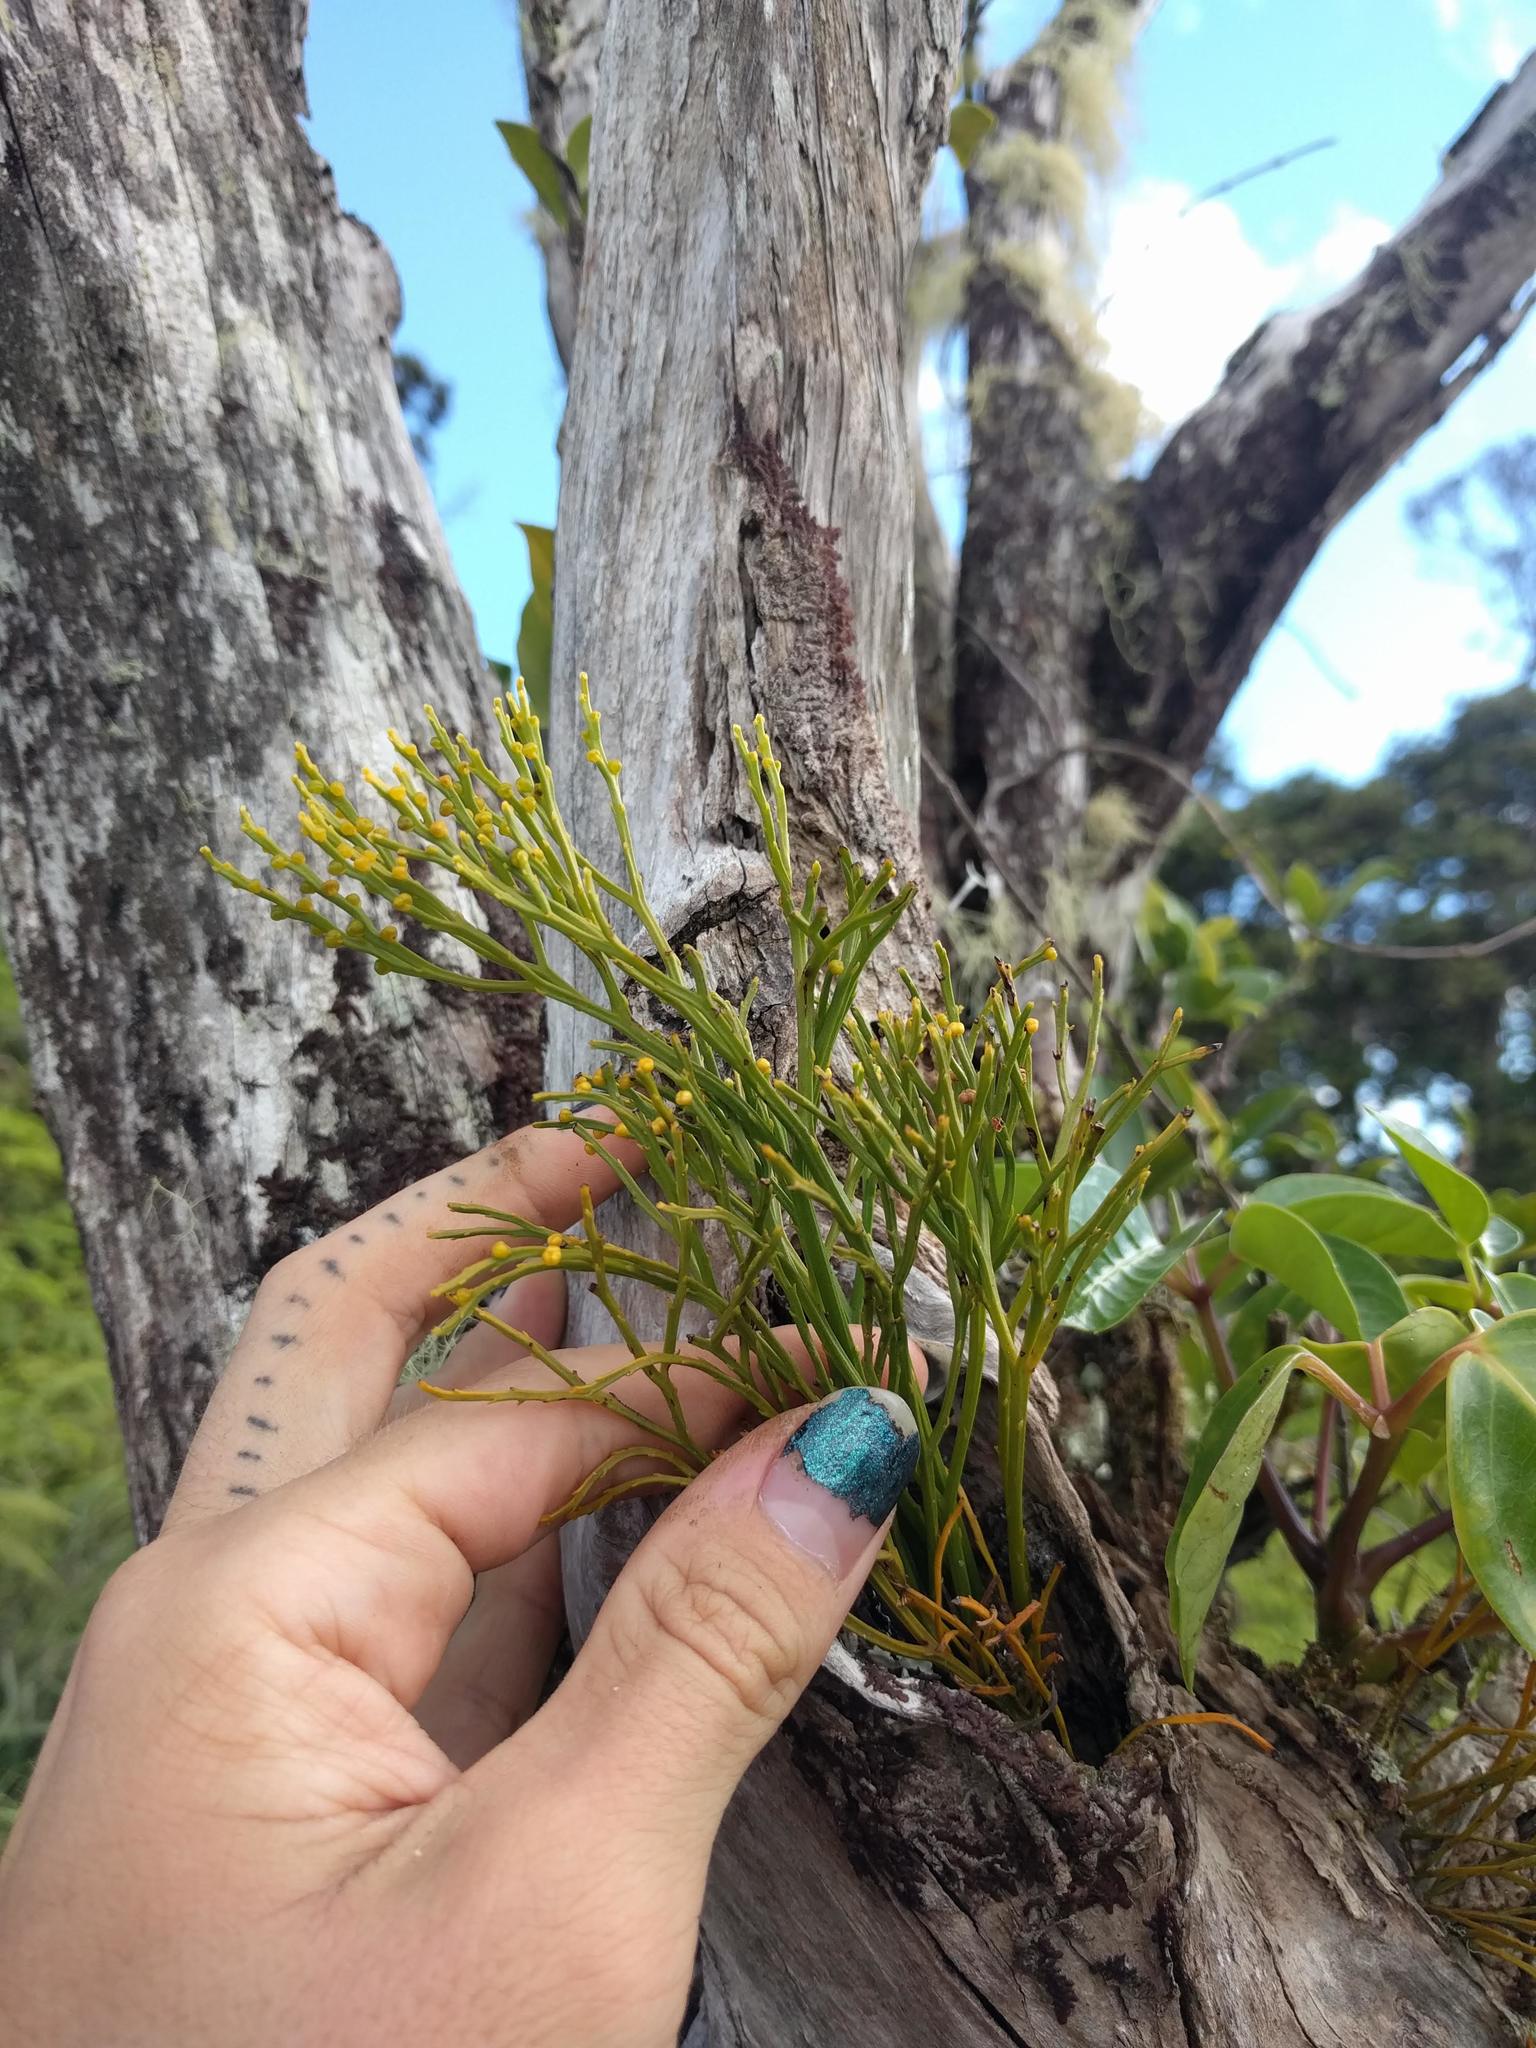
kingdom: Plantae
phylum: Tracheophyta
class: Polypodiopsida
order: Psilotales
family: Psilotaceae
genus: Psilotum
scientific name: Psilotum nudum
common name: Skeleton fork fern
